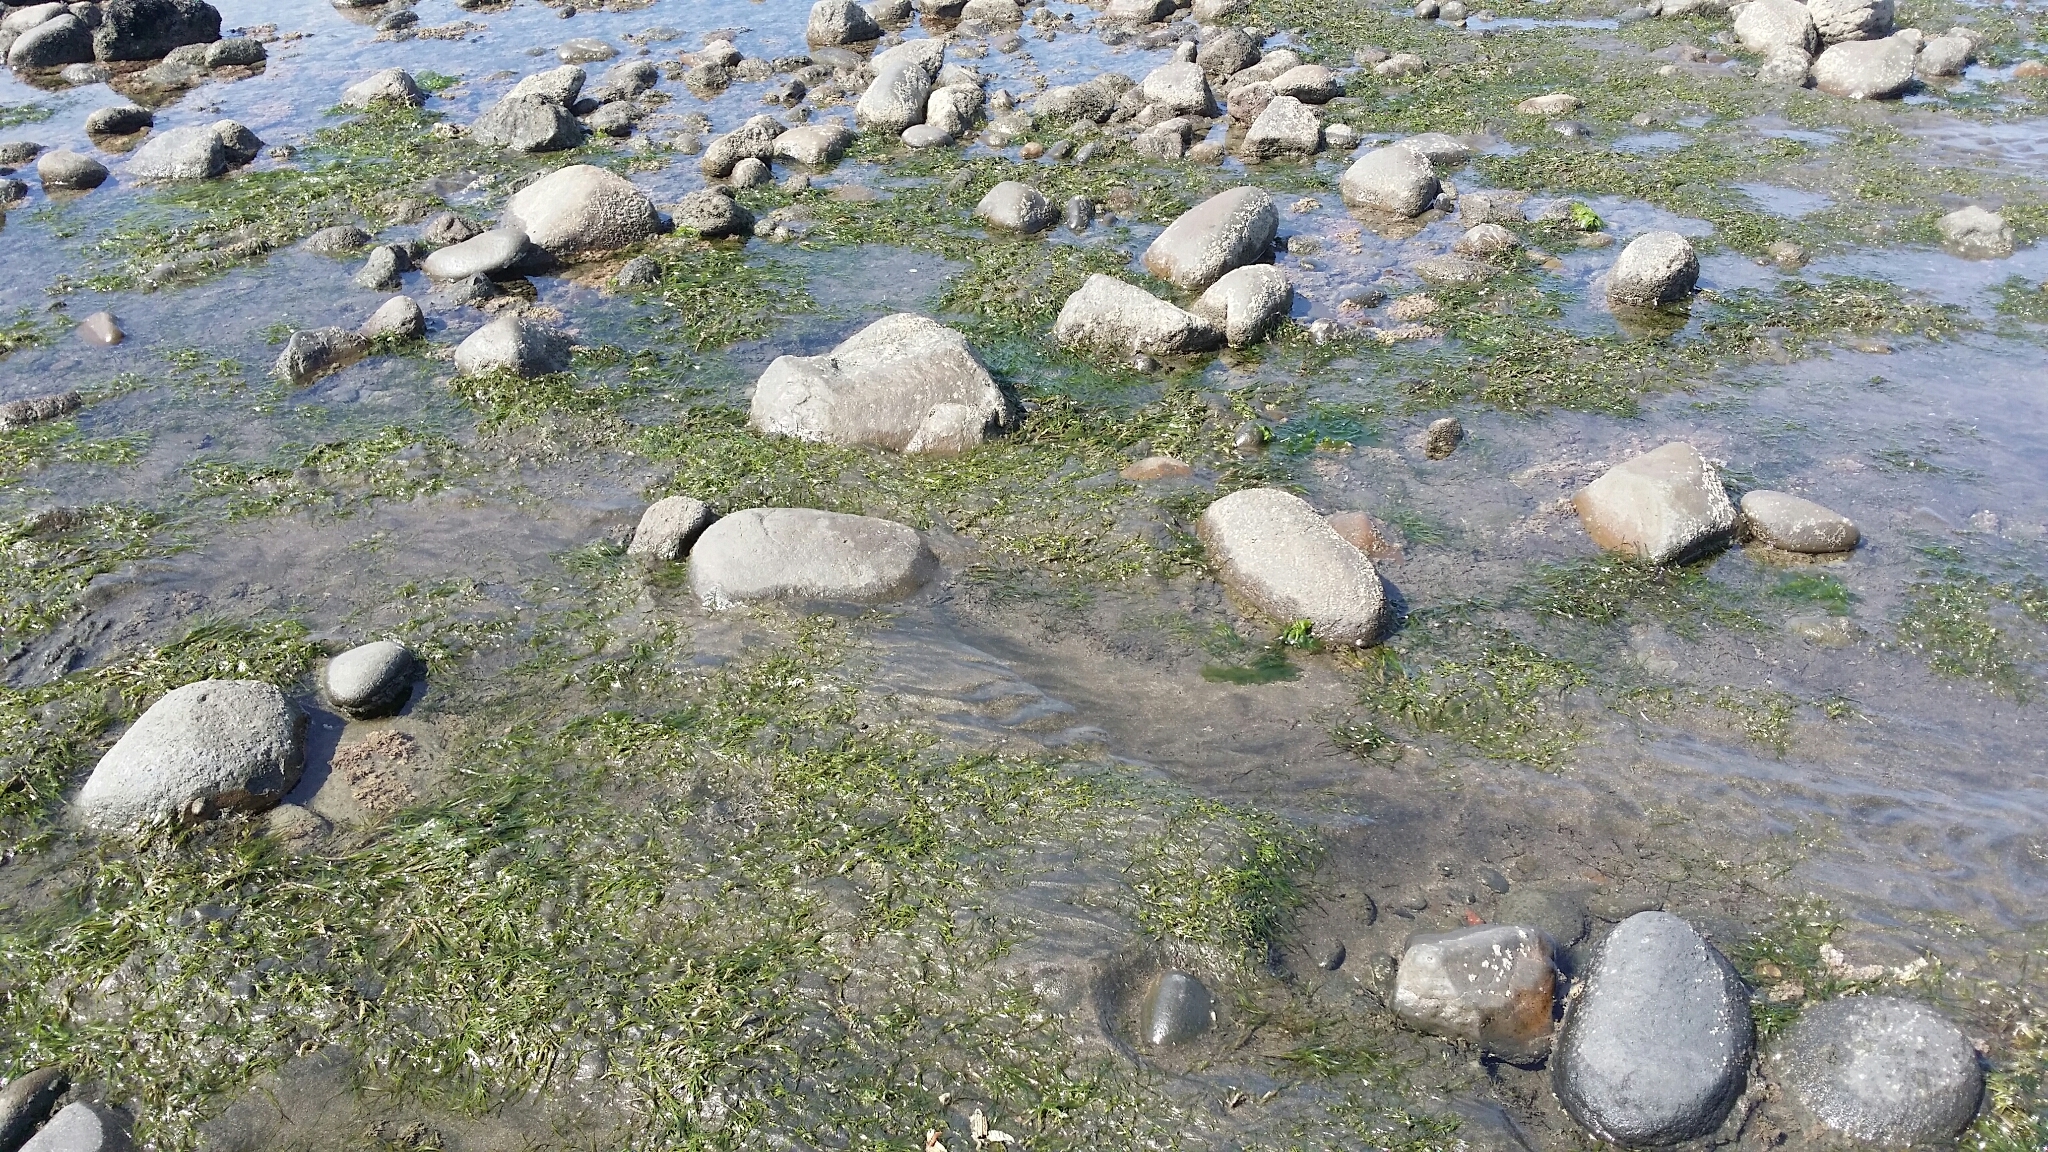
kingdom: Plantae
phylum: Tracheophyta
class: Liliopsida
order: Alismatales
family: Zosteraceae
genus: Zostera
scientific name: Zostera muelleri
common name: Species code: zc
